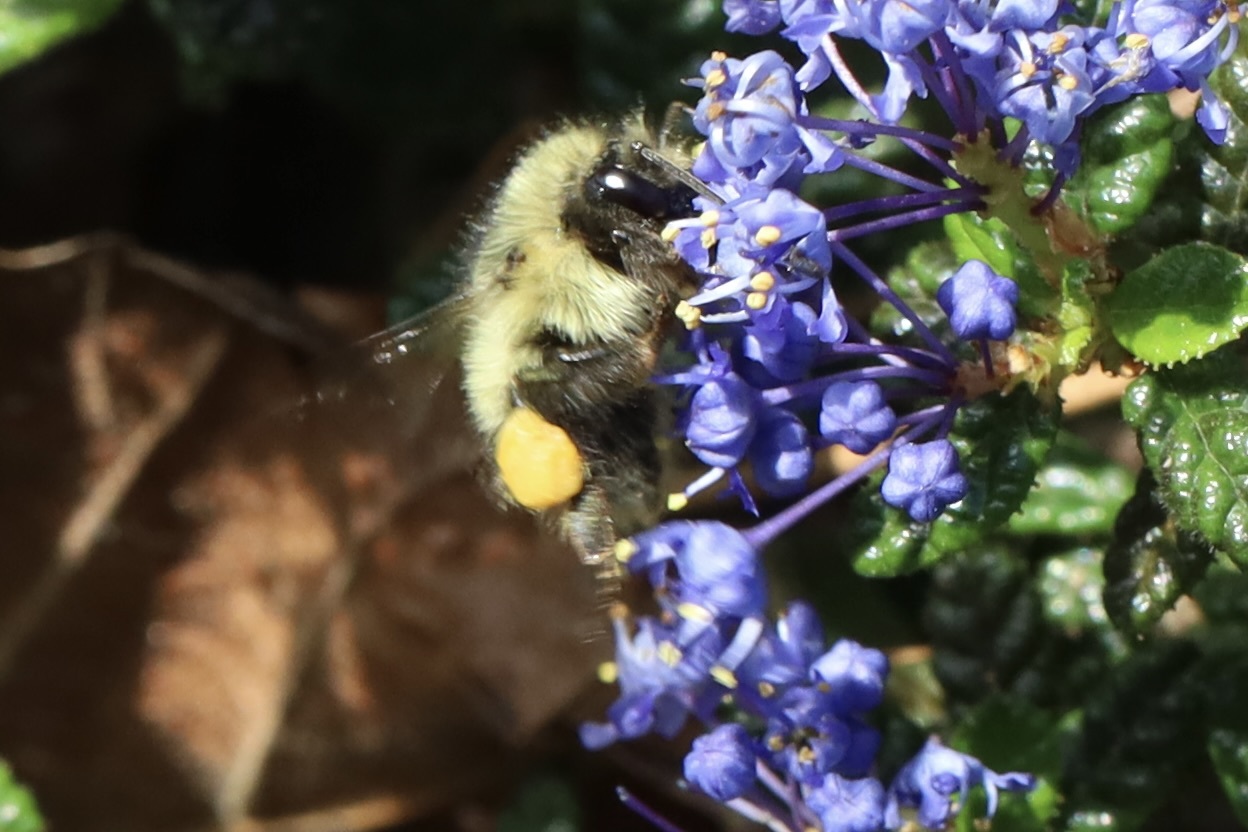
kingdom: Animalia
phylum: Arthropoda
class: Insecta
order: Hymenoptera
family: Apidae
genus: Bombus
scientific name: Bombus mixtus
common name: Fuzzy-horned bumble bee
